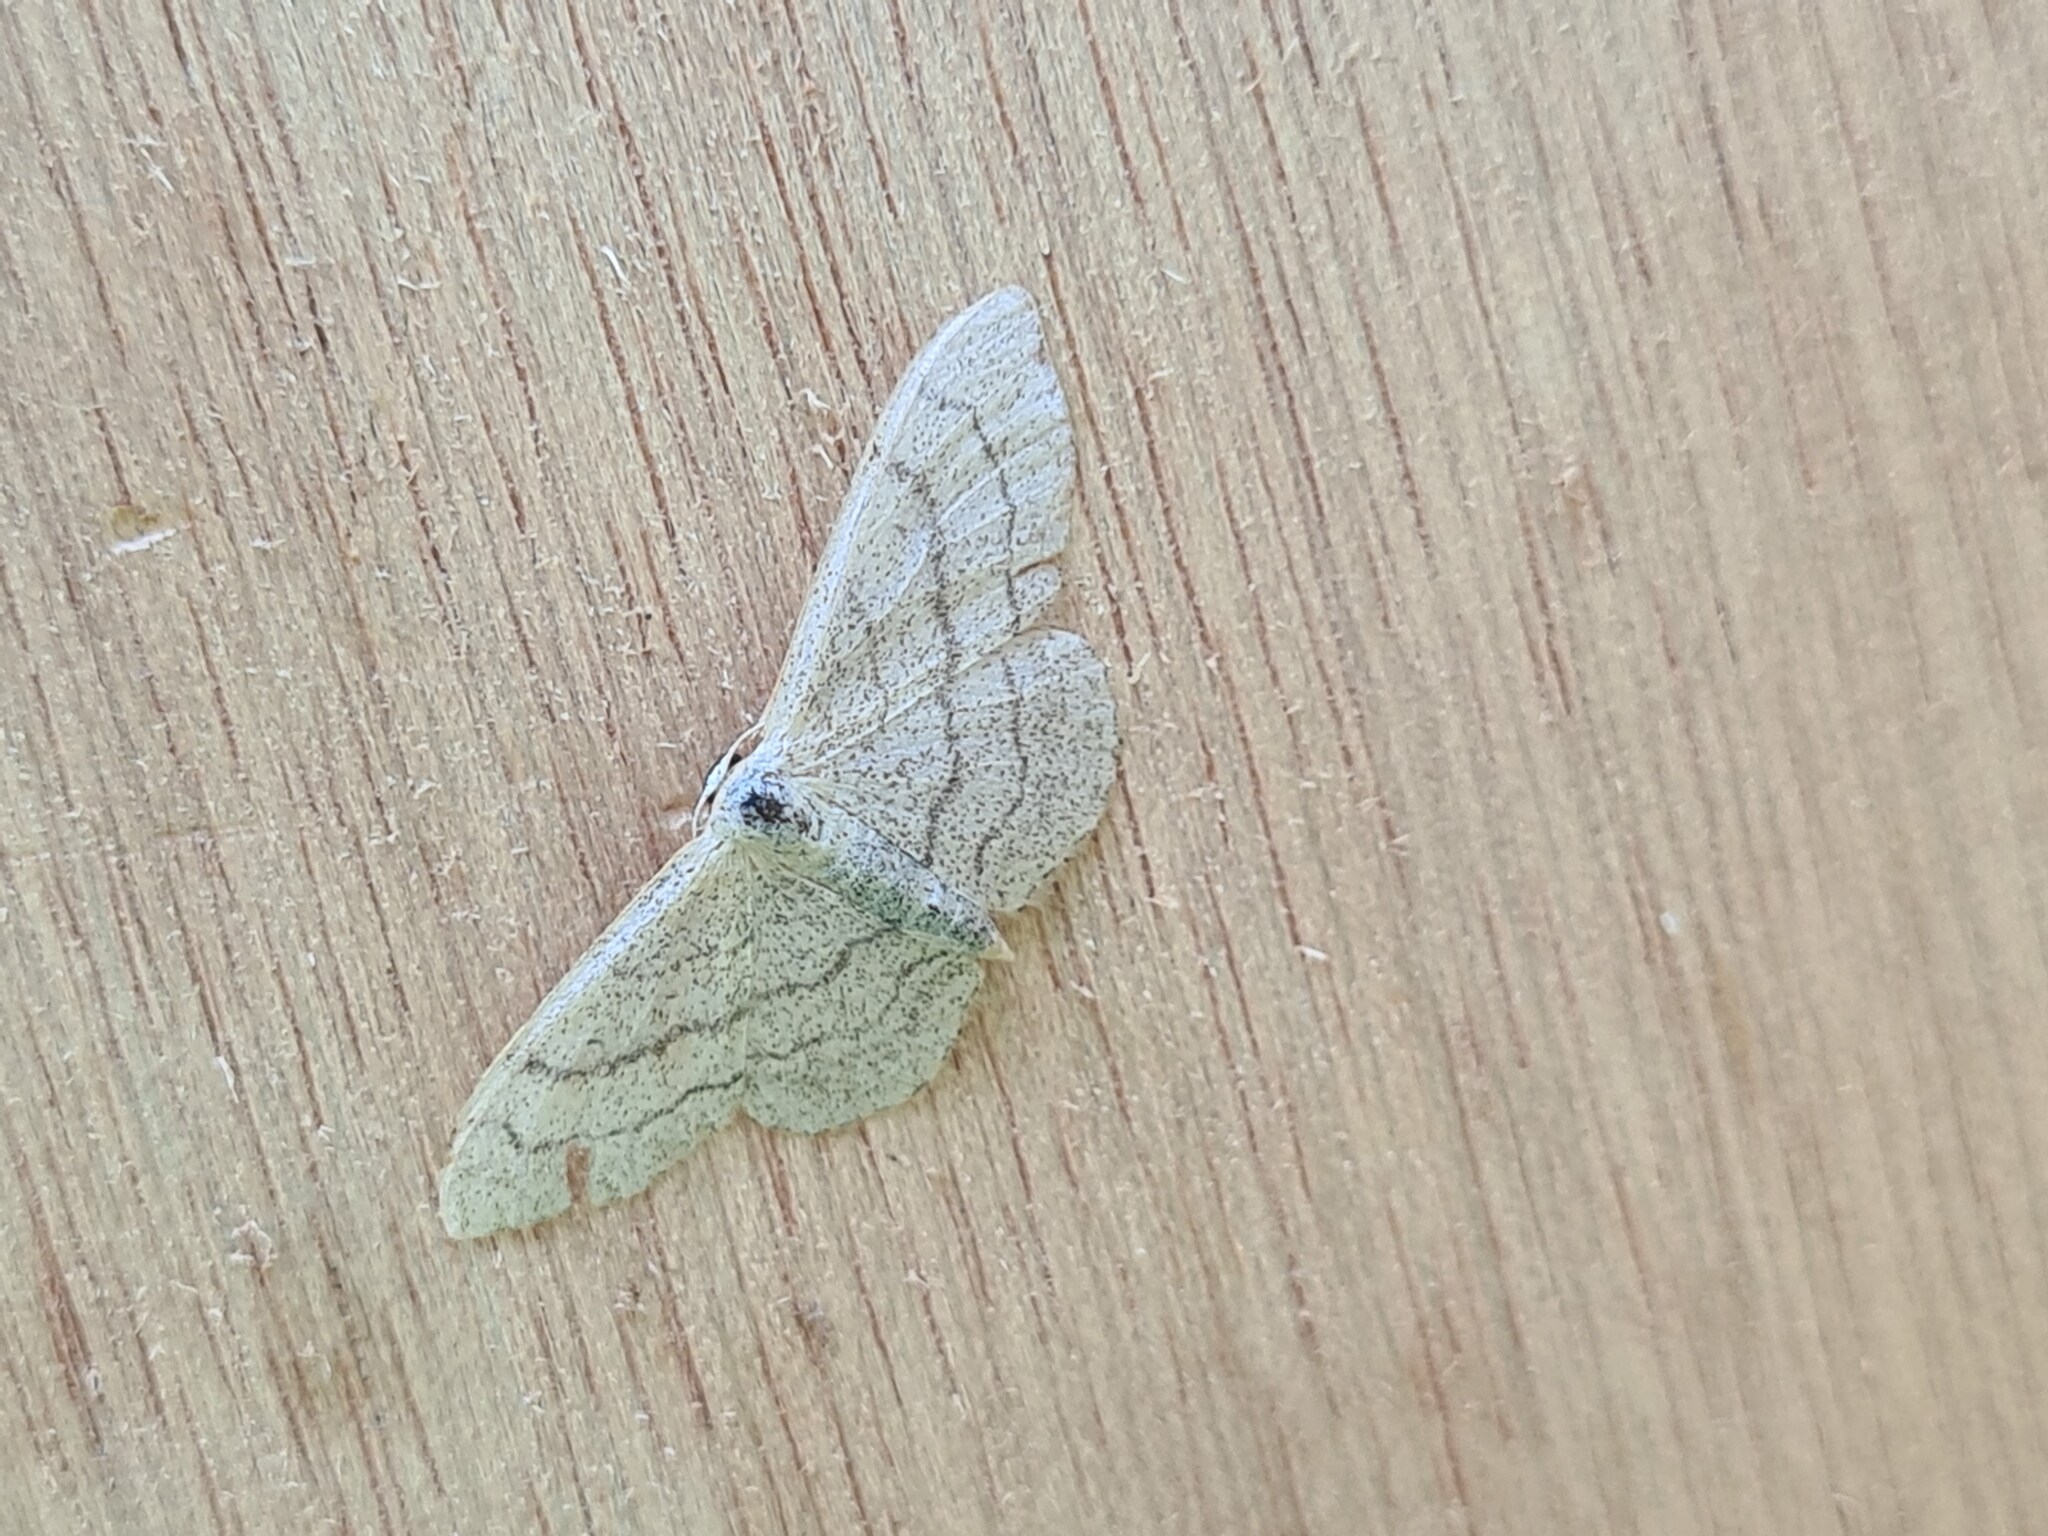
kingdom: Animalia
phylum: Arthropoda
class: Insecta
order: Lepidoptera
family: Geometridae
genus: Idaea
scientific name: Idaea aversata
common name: Riband wave
